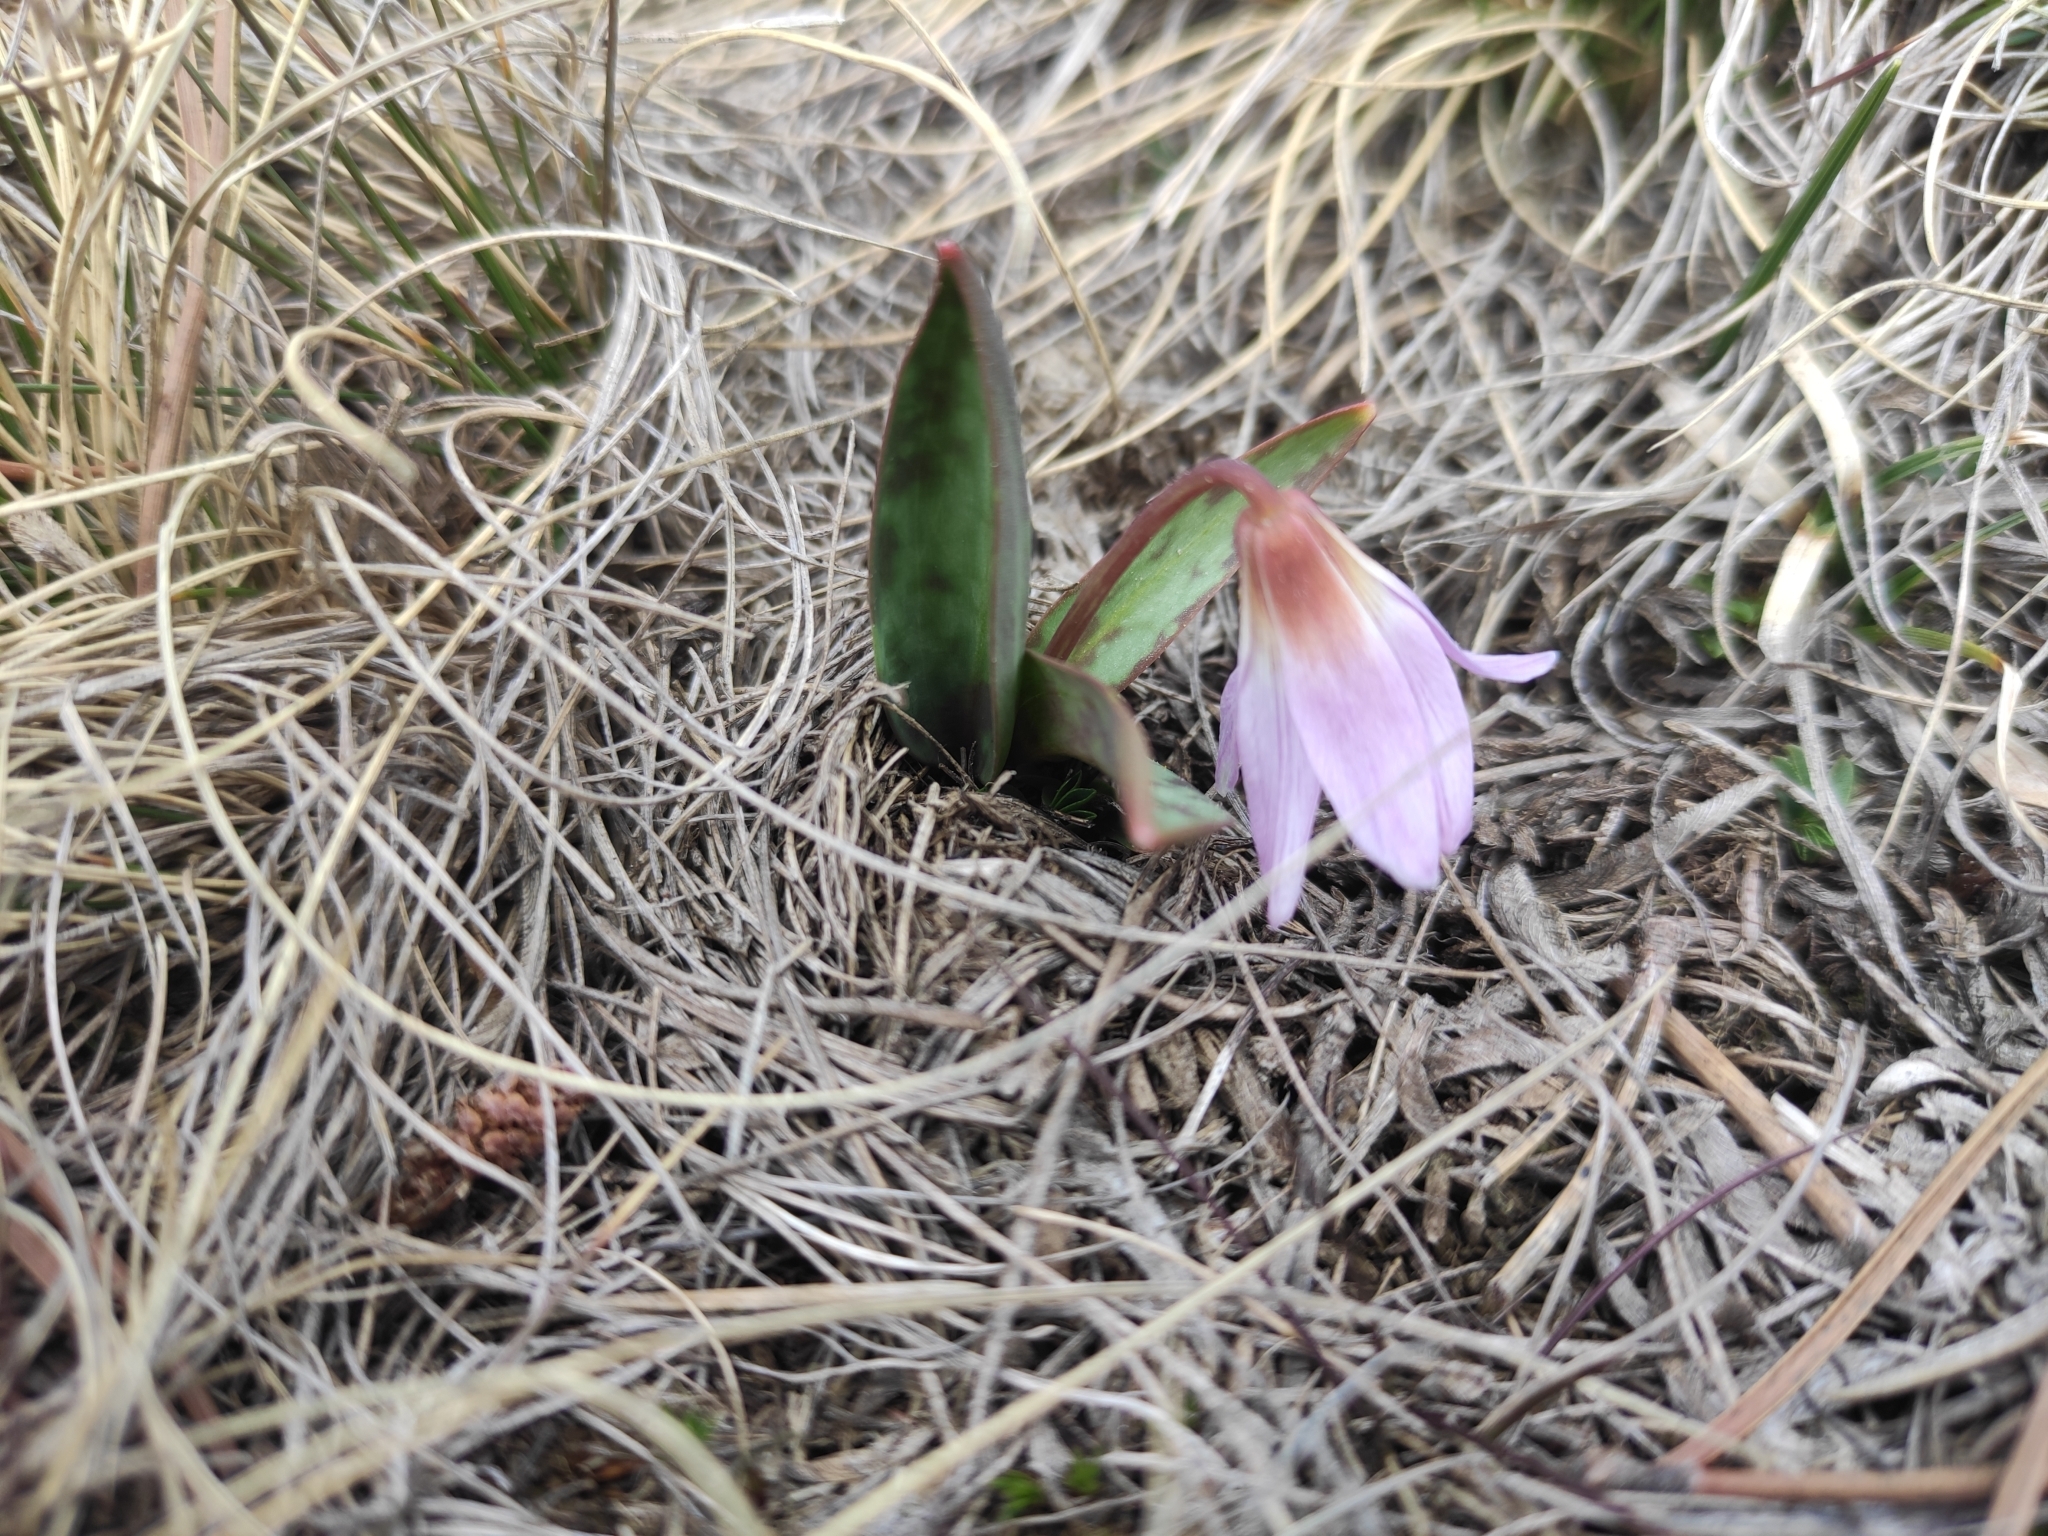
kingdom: Plantae
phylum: Tracheophyta
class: Liliopsida
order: Liliales
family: Liliaceae
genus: Erythronium
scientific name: Erythronium dens-canis
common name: Dog's-tooth-violet
